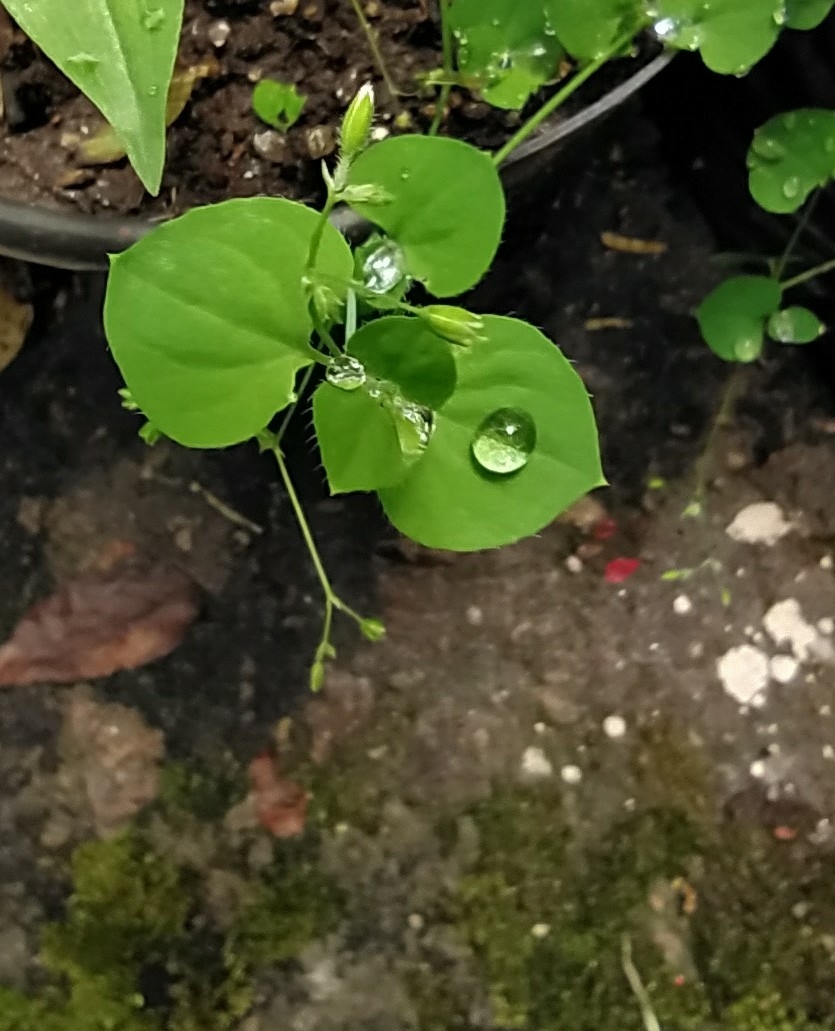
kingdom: Plantae
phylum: Tracheophyta
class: Magnoliopsida
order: Caryophyllales
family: Caryophyllaceae
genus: Drymaria
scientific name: Drymaria cordata
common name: Whitesnow
